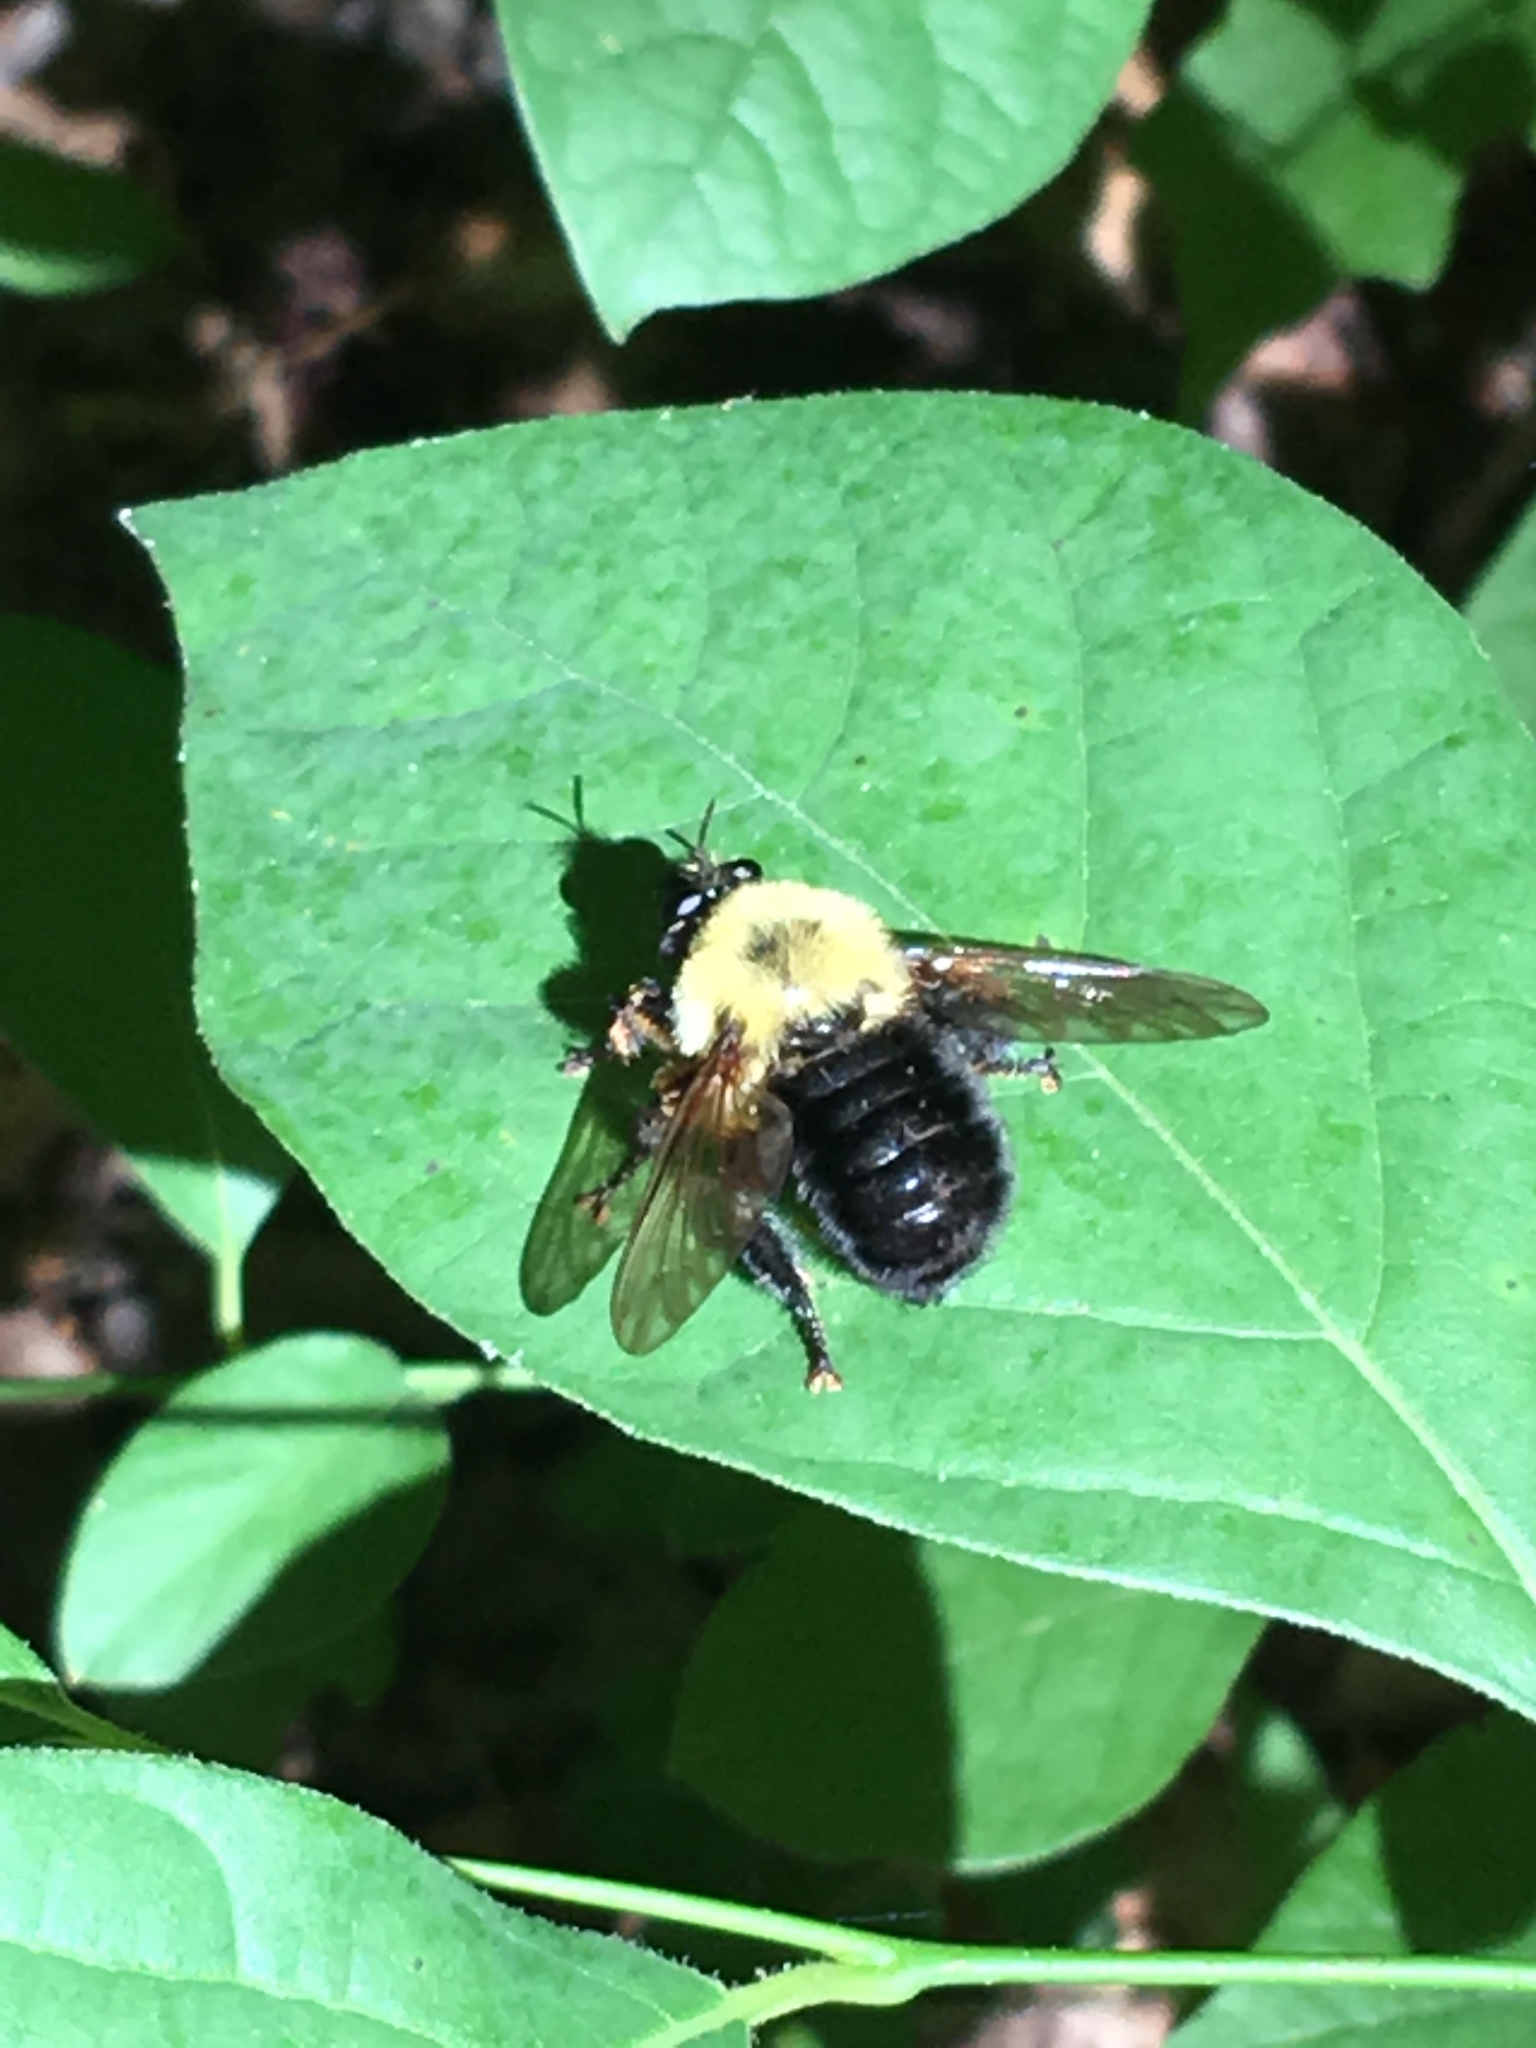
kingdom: Animalia
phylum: Arthropoda
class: Insecta
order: Diptera
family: Asilidae
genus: Laphria
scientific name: Laphria thoracica
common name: Bumble bee mimic robber fly
